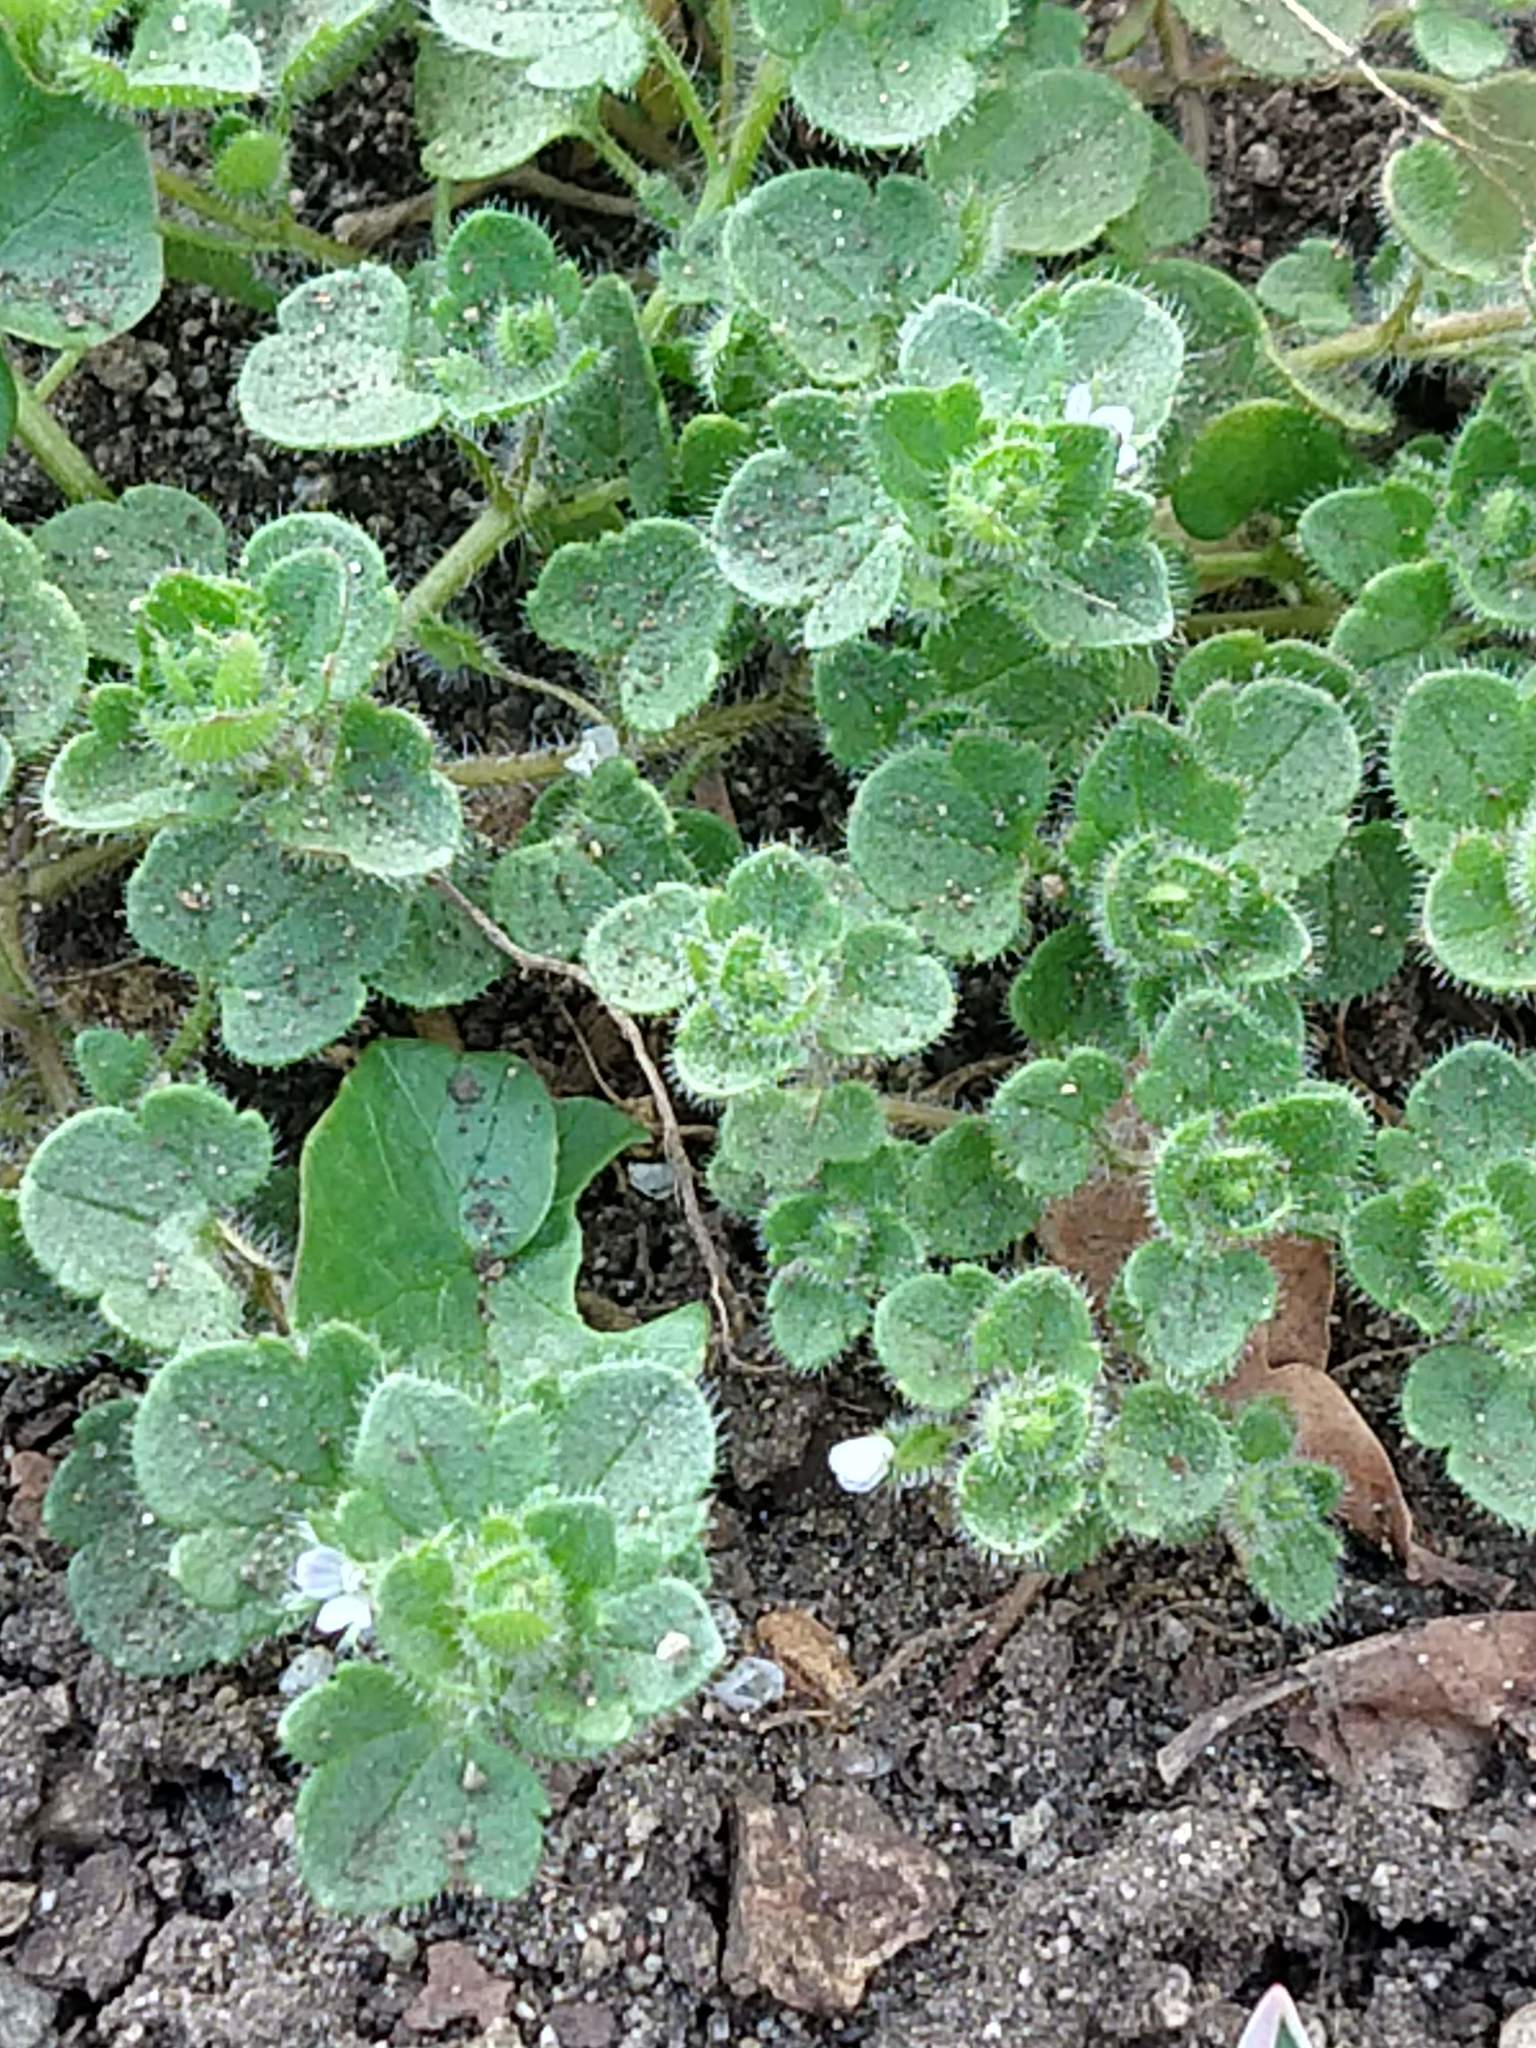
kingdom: Plantae
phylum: Tracheophyta
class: Magnoliopsida
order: Lamiales
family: Plantaginaceae
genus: Veronica
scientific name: Veronica hederifolia
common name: Ivy-leaved speedwell
